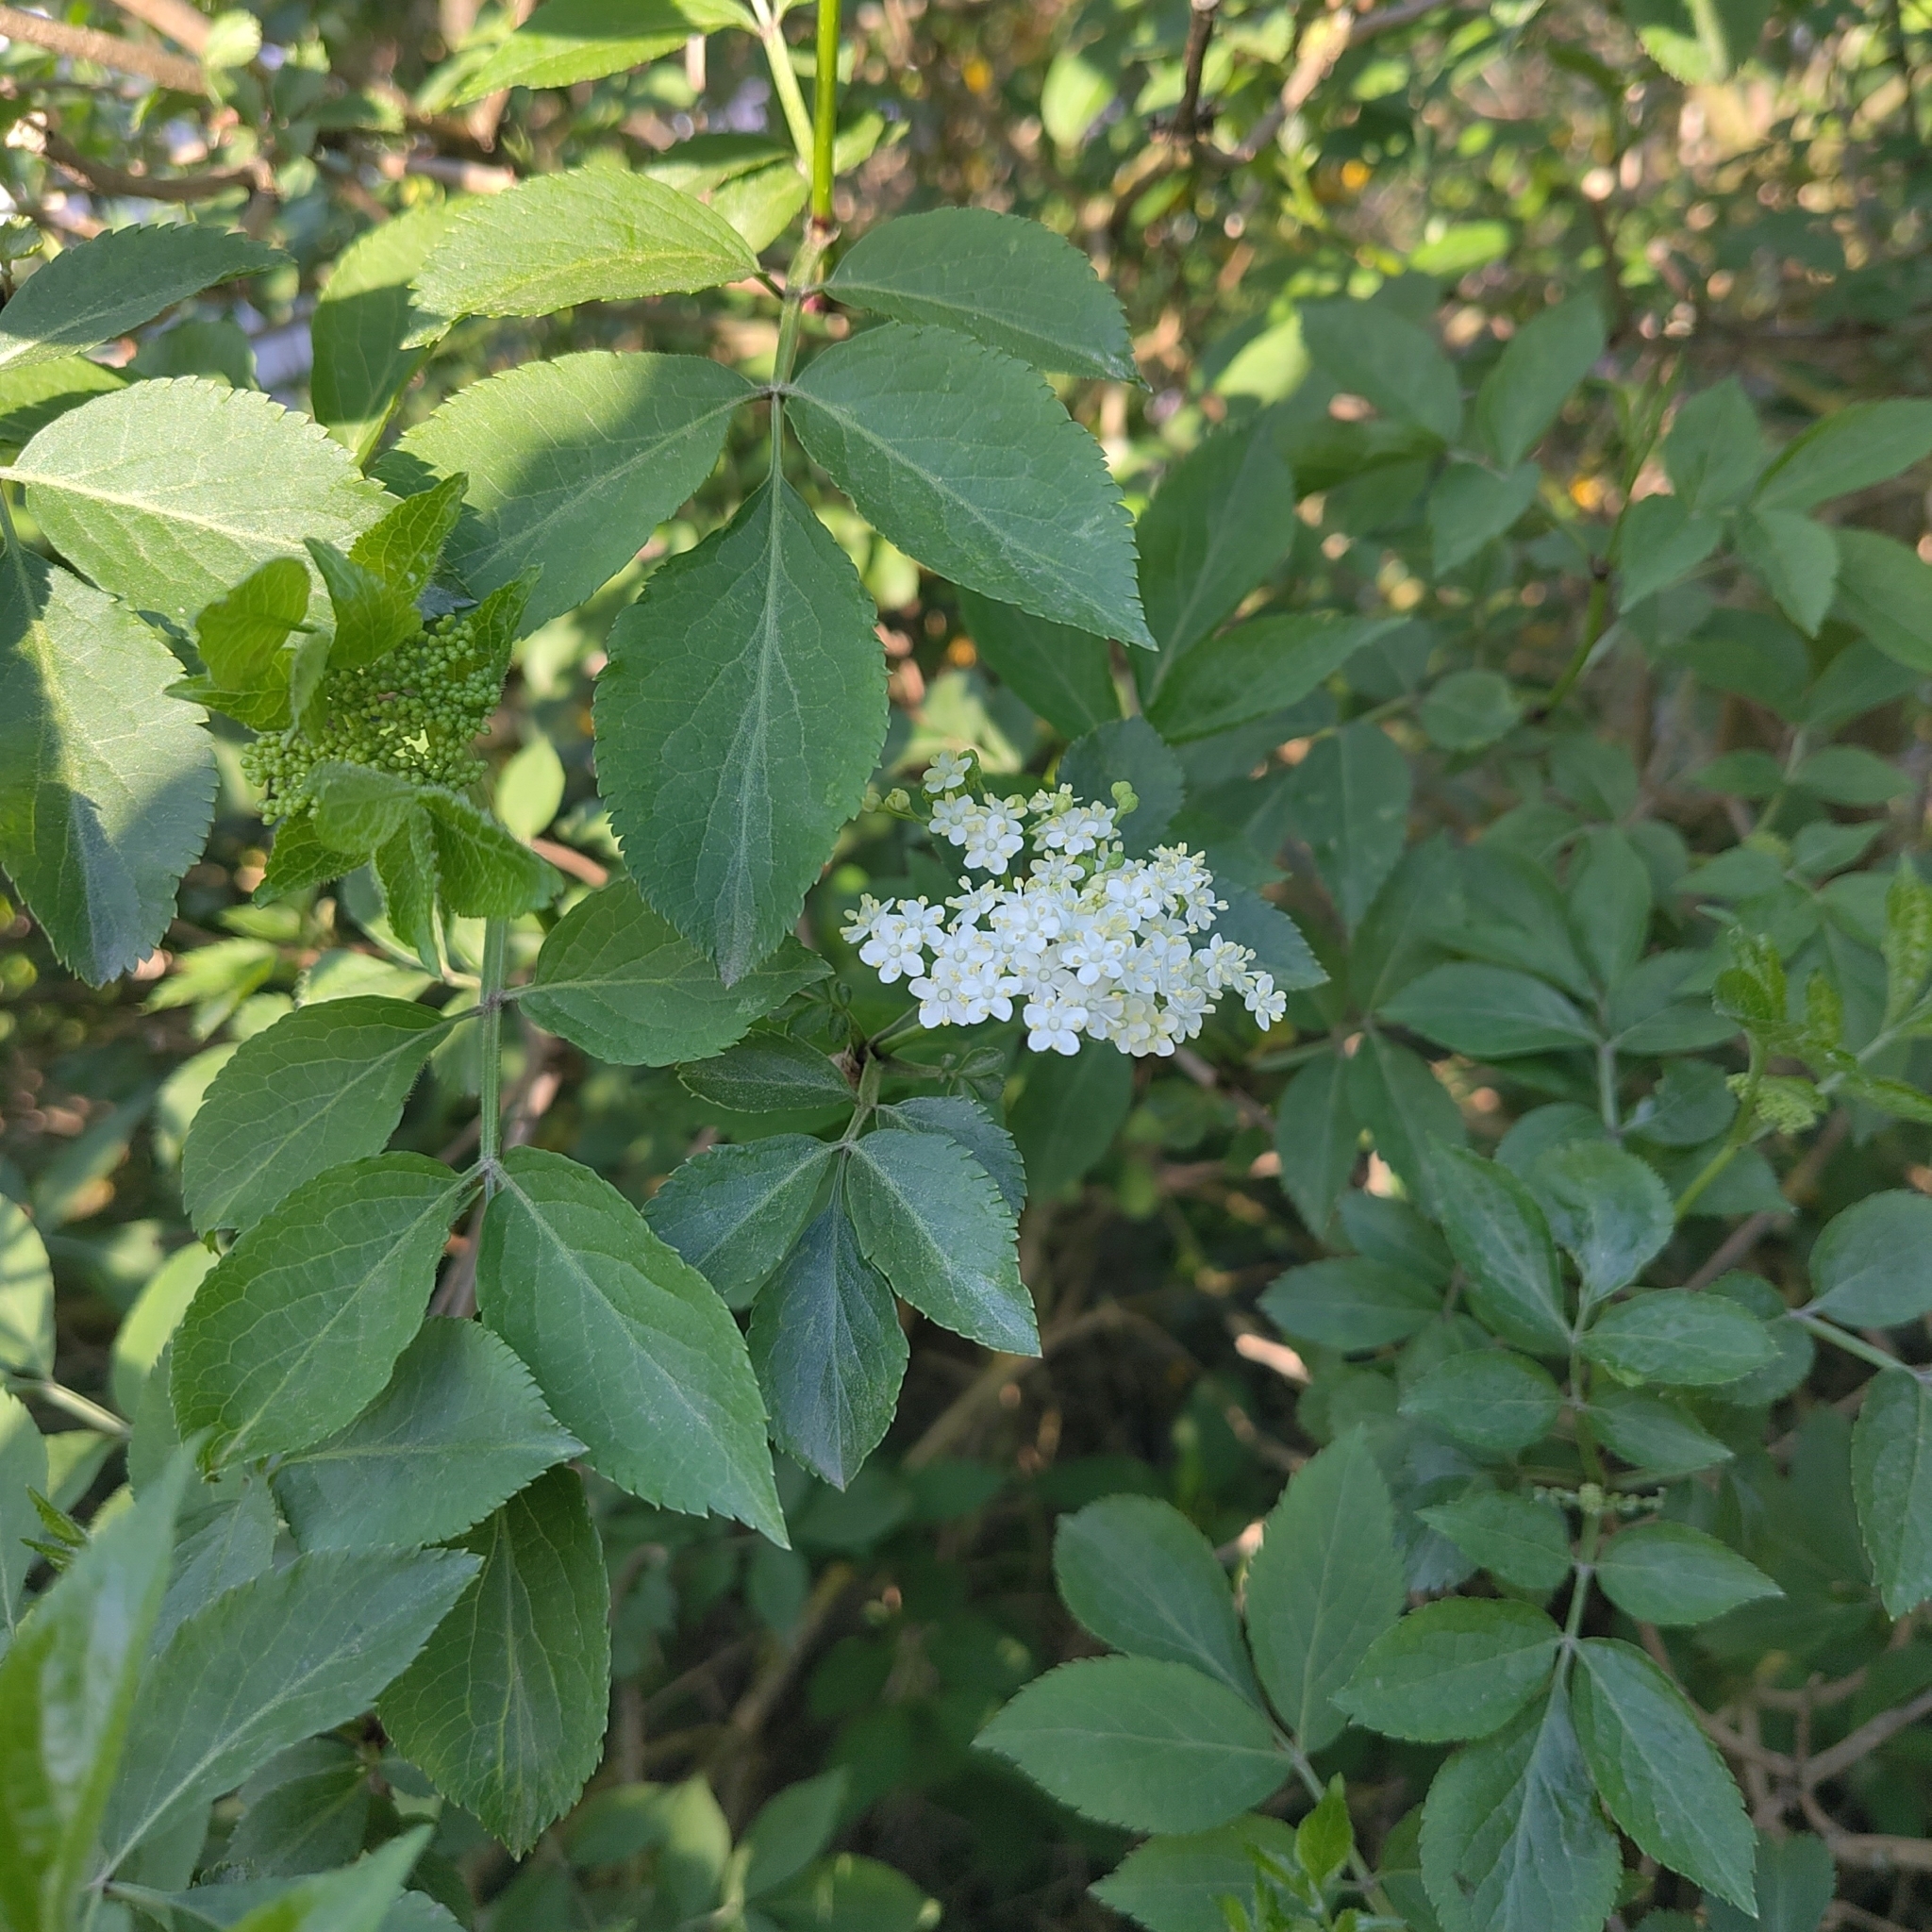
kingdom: Plantae
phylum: Tracheophyta
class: Magnoliopsida
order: Dipsacales
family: Viburnaceae
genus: Sambucus
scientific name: Sambucus nigra
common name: Elder
